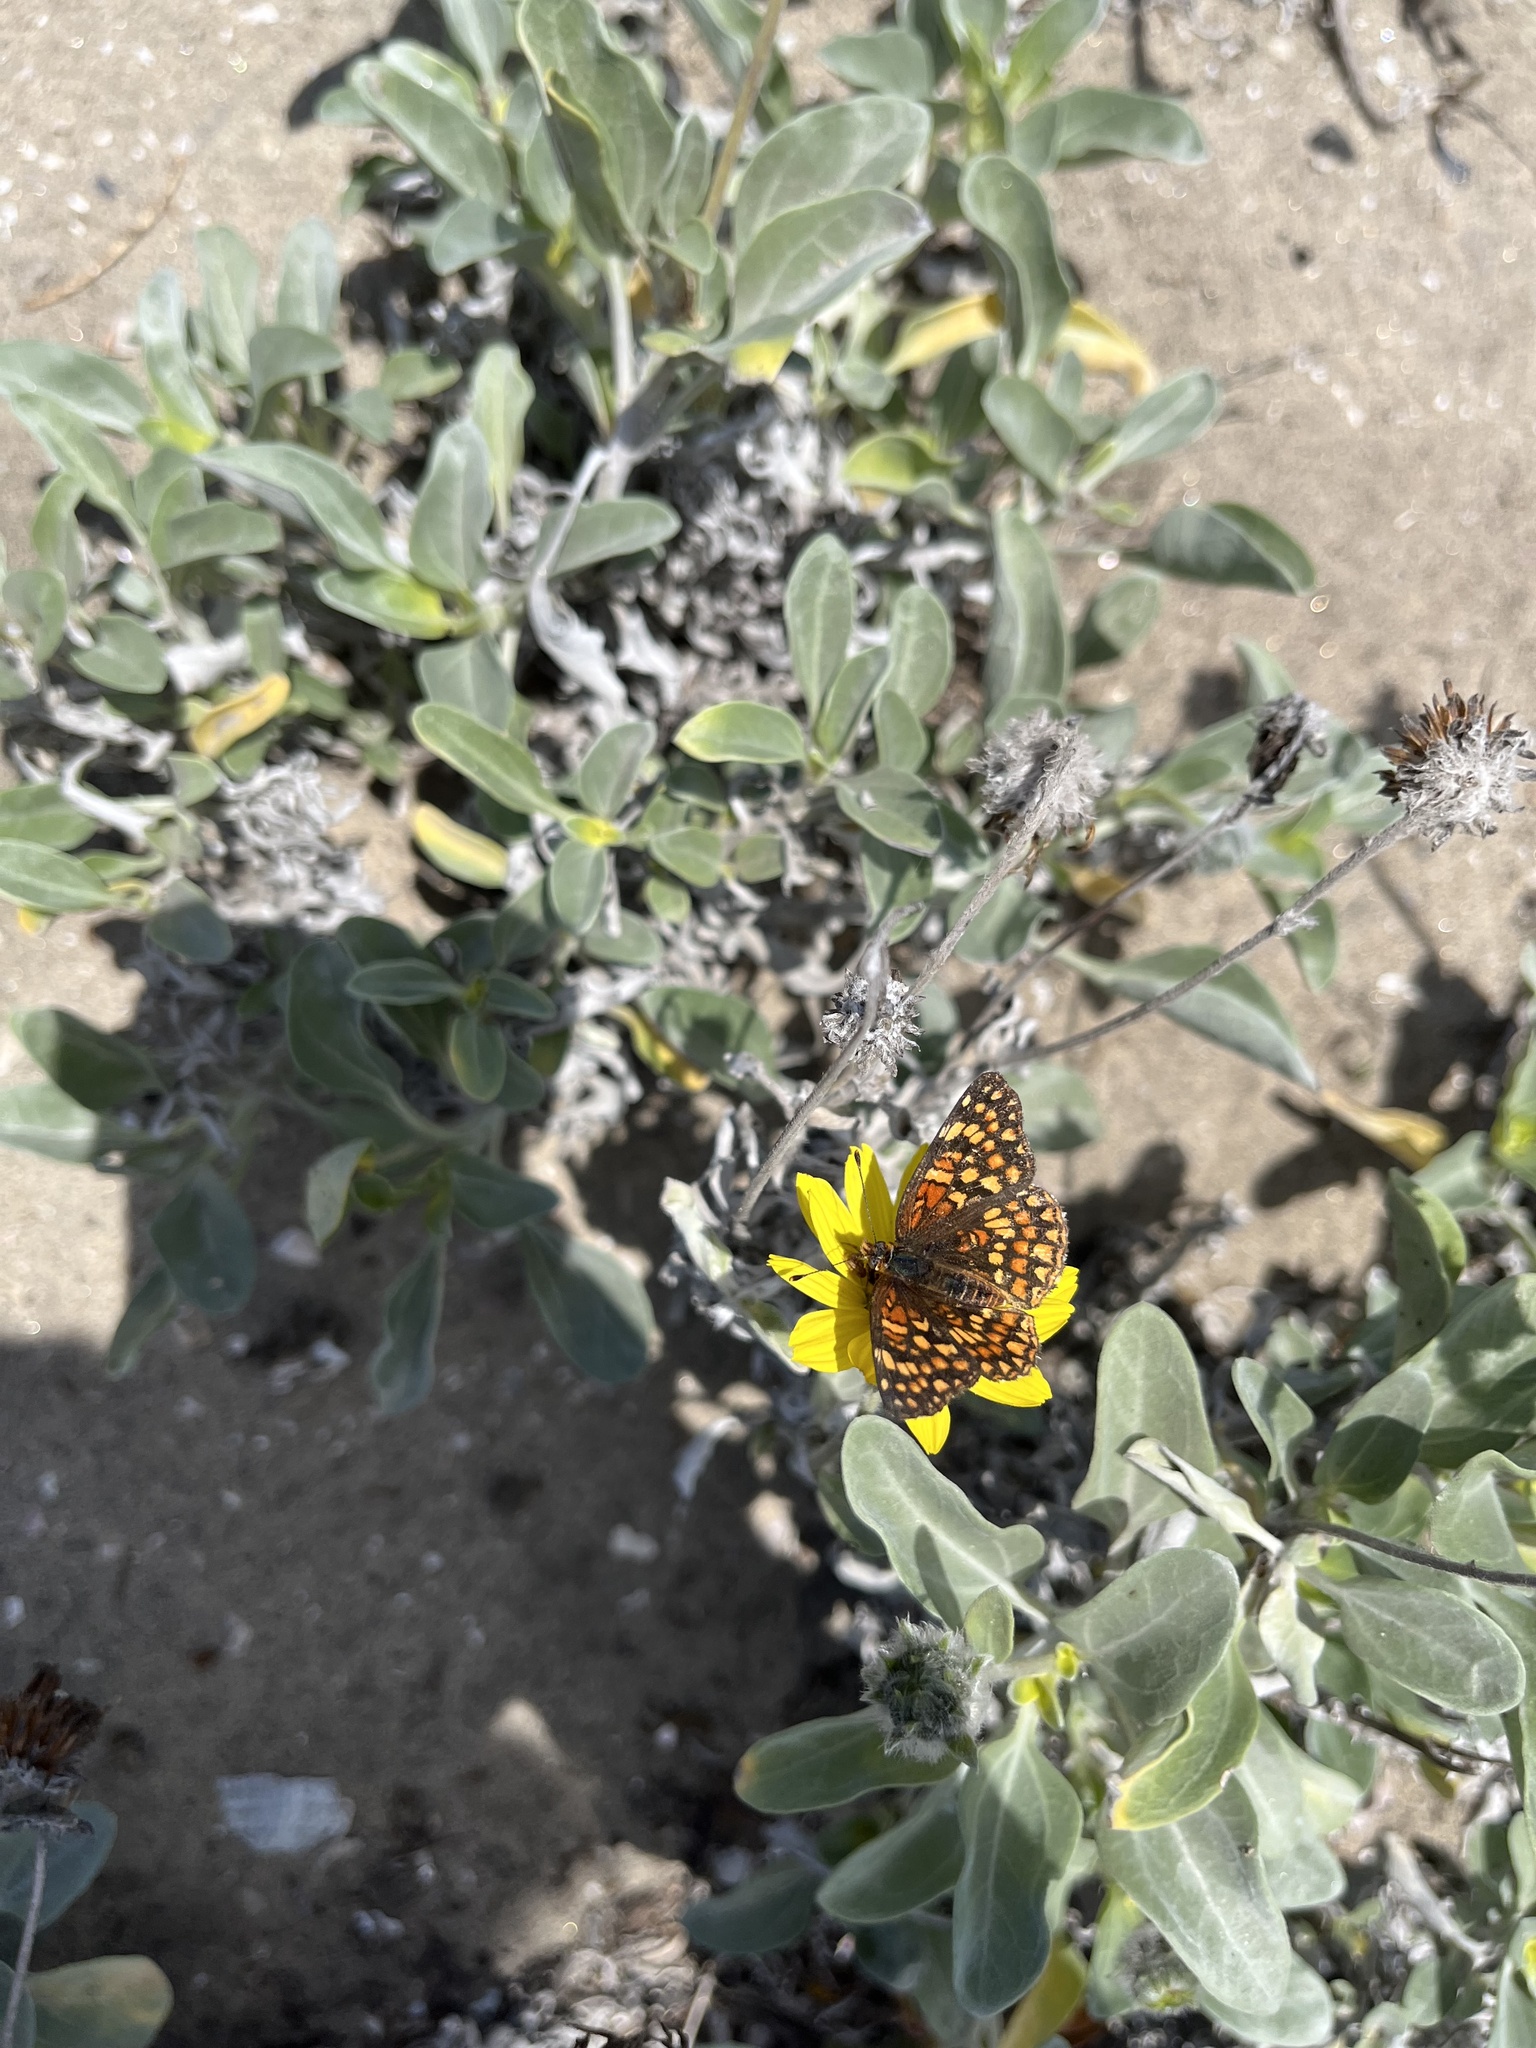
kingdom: Animalia
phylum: Arthropoda
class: Insecta
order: Lepidoptera
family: Nymphalidae
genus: Chlosyne
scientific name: Chlosyne gabbii
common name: Gabb's checkerspot
